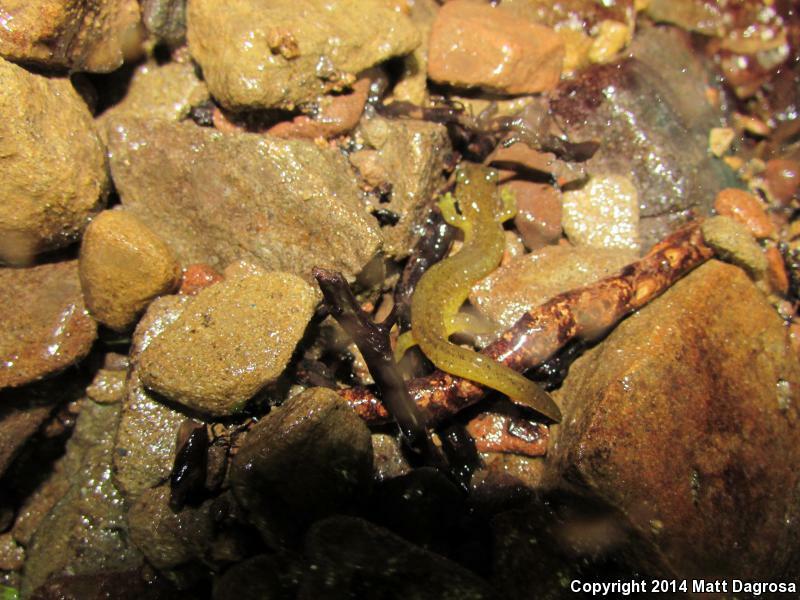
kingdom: Animalia
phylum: Chordata
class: Amphibia
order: Caudata
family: Rhyacotritonidae
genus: Rhyacotriton
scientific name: Rhyacotriton variegatus
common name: Southern torrent salamander
